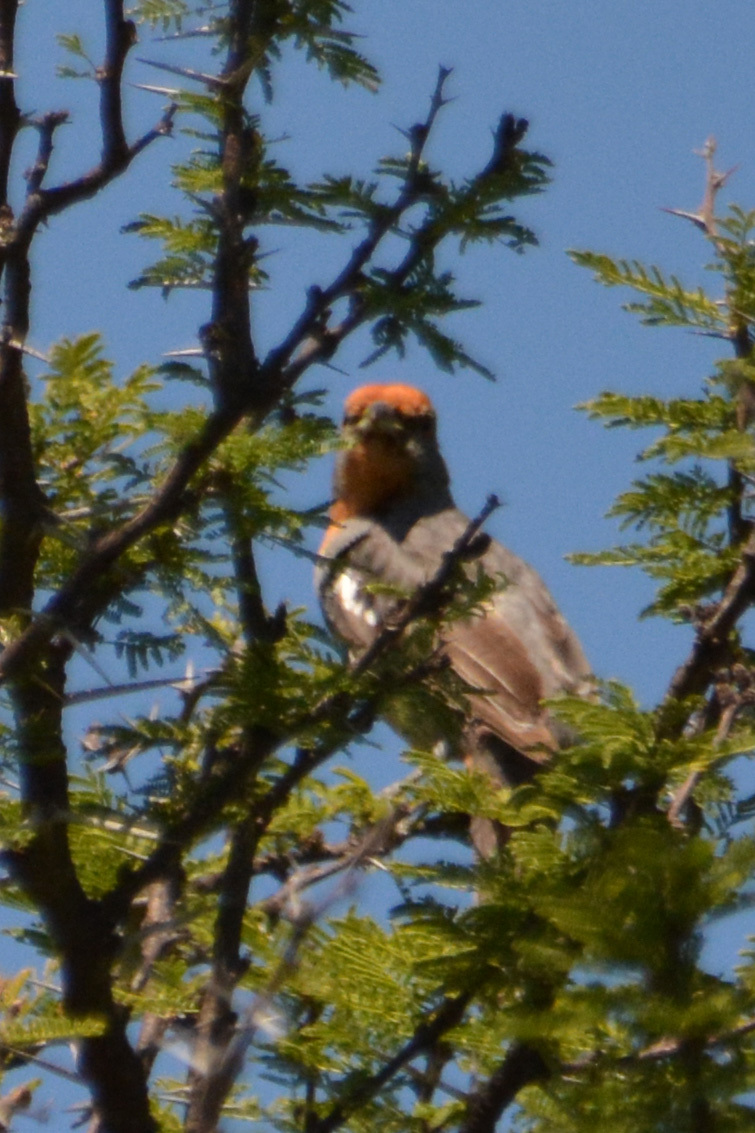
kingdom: Animalia
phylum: Chordata
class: Aves
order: Passeriformes
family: Cotingidae
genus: Phytotoma
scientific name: Phytotoma rutila
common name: White-tipped plantcutter
